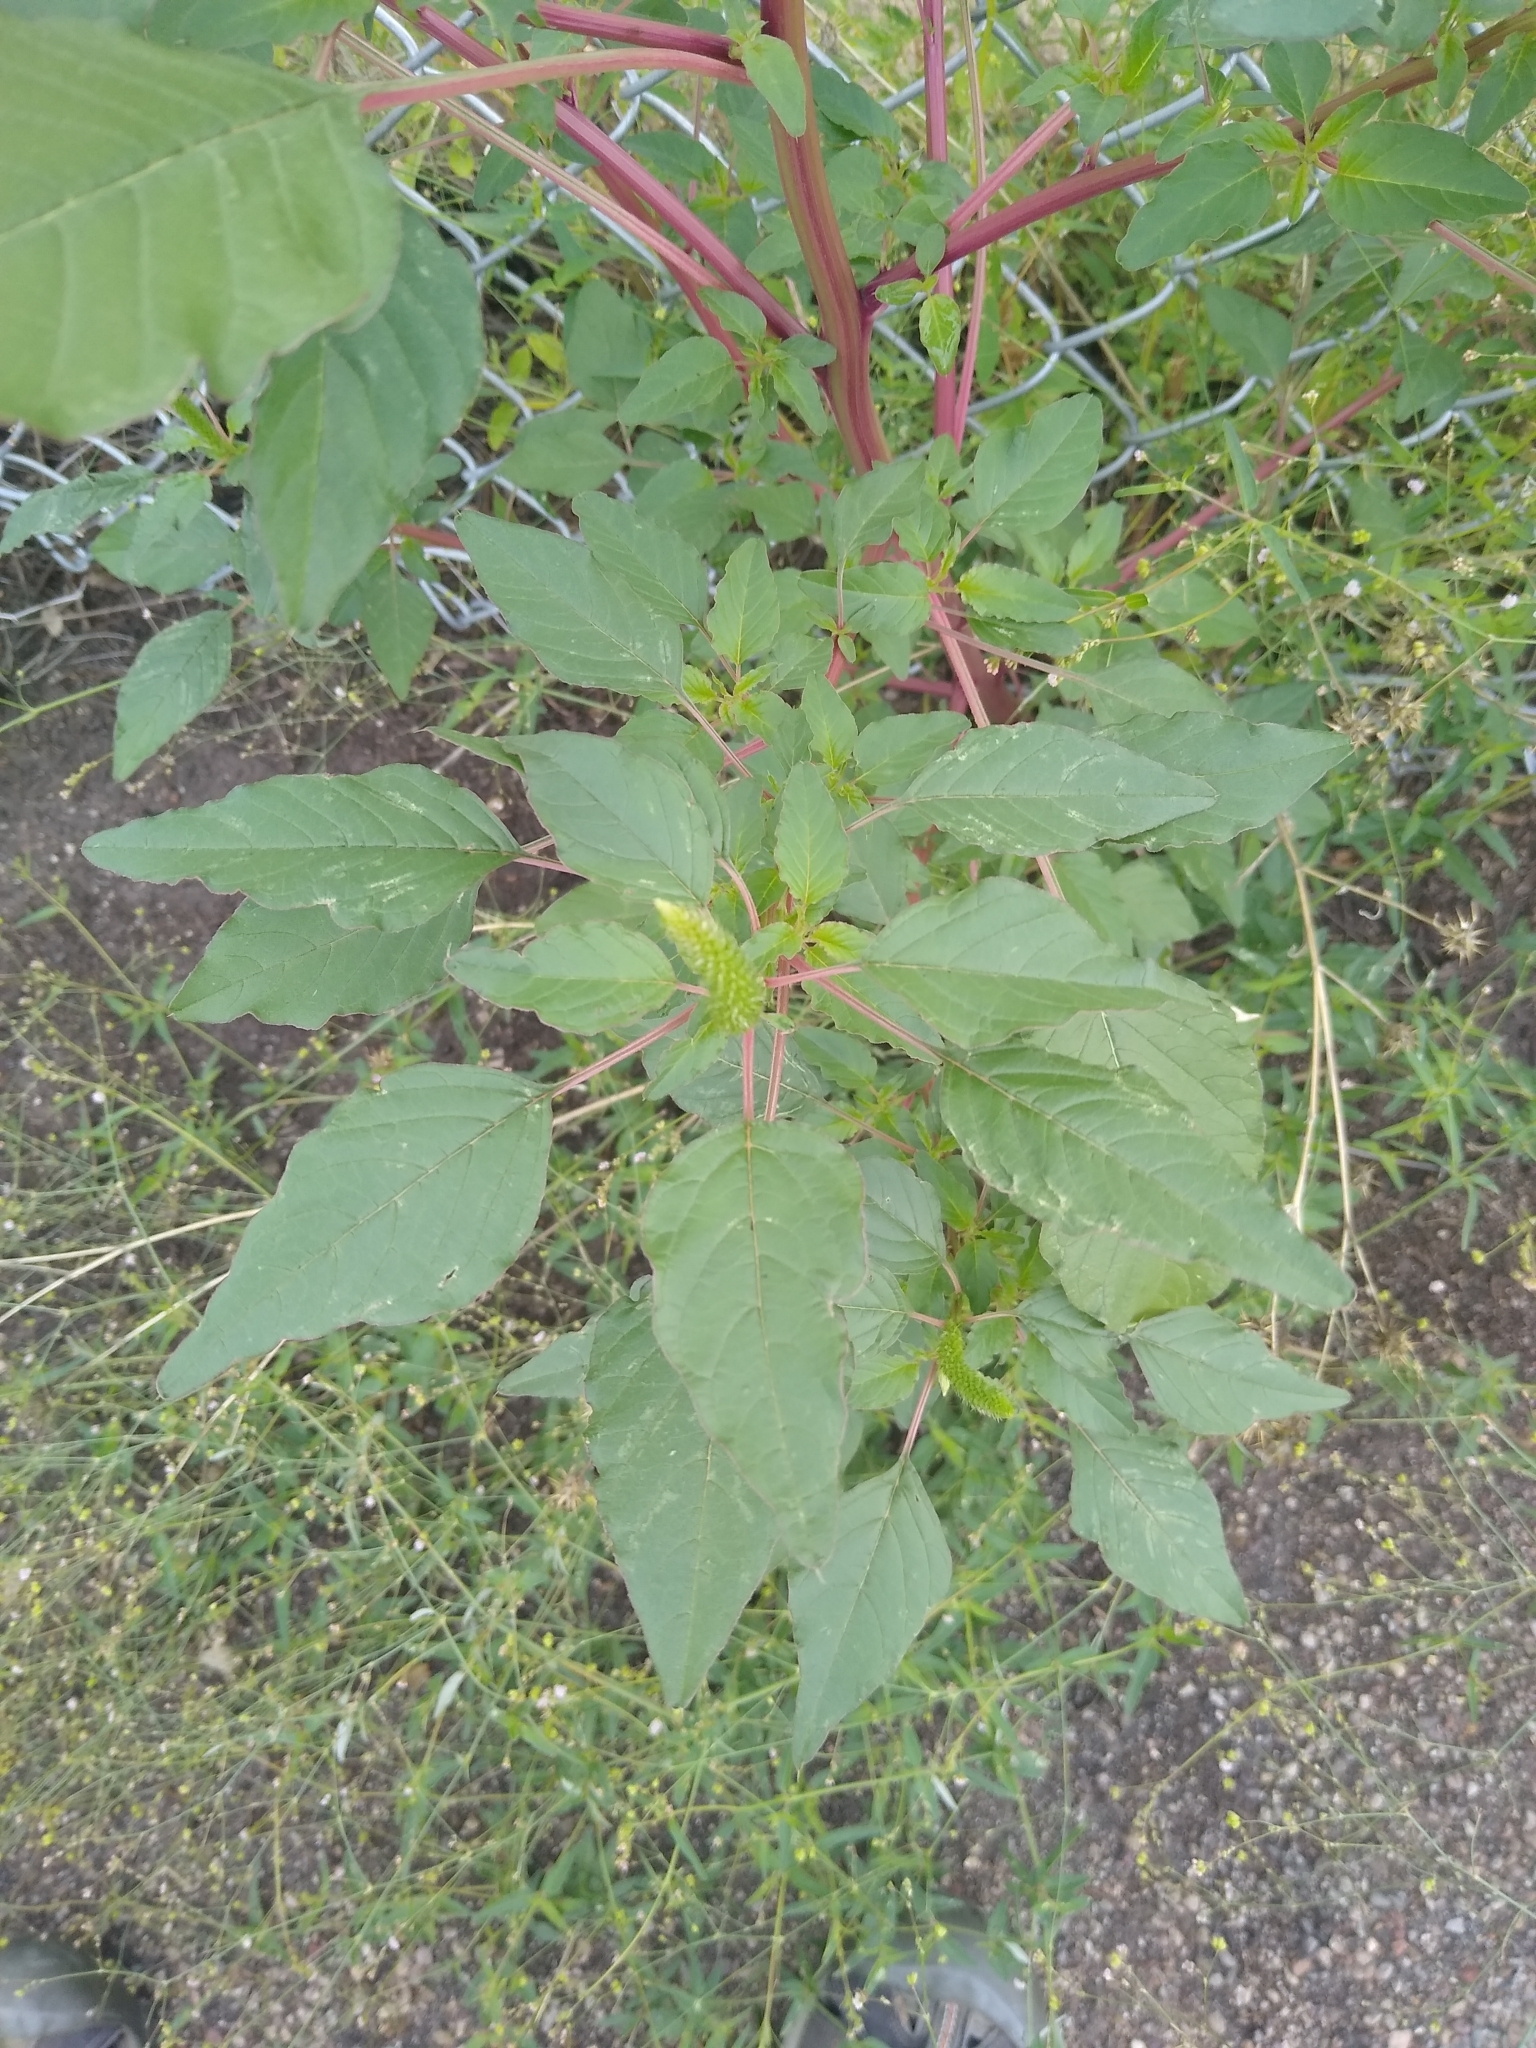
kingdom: Plantae
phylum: Tracheophyta
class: Magnoliopsida
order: Caryophyllales
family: Amaranthaceae
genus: Amaranthus
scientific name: Amaranthus palmeri
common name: Dioecious amaranth
